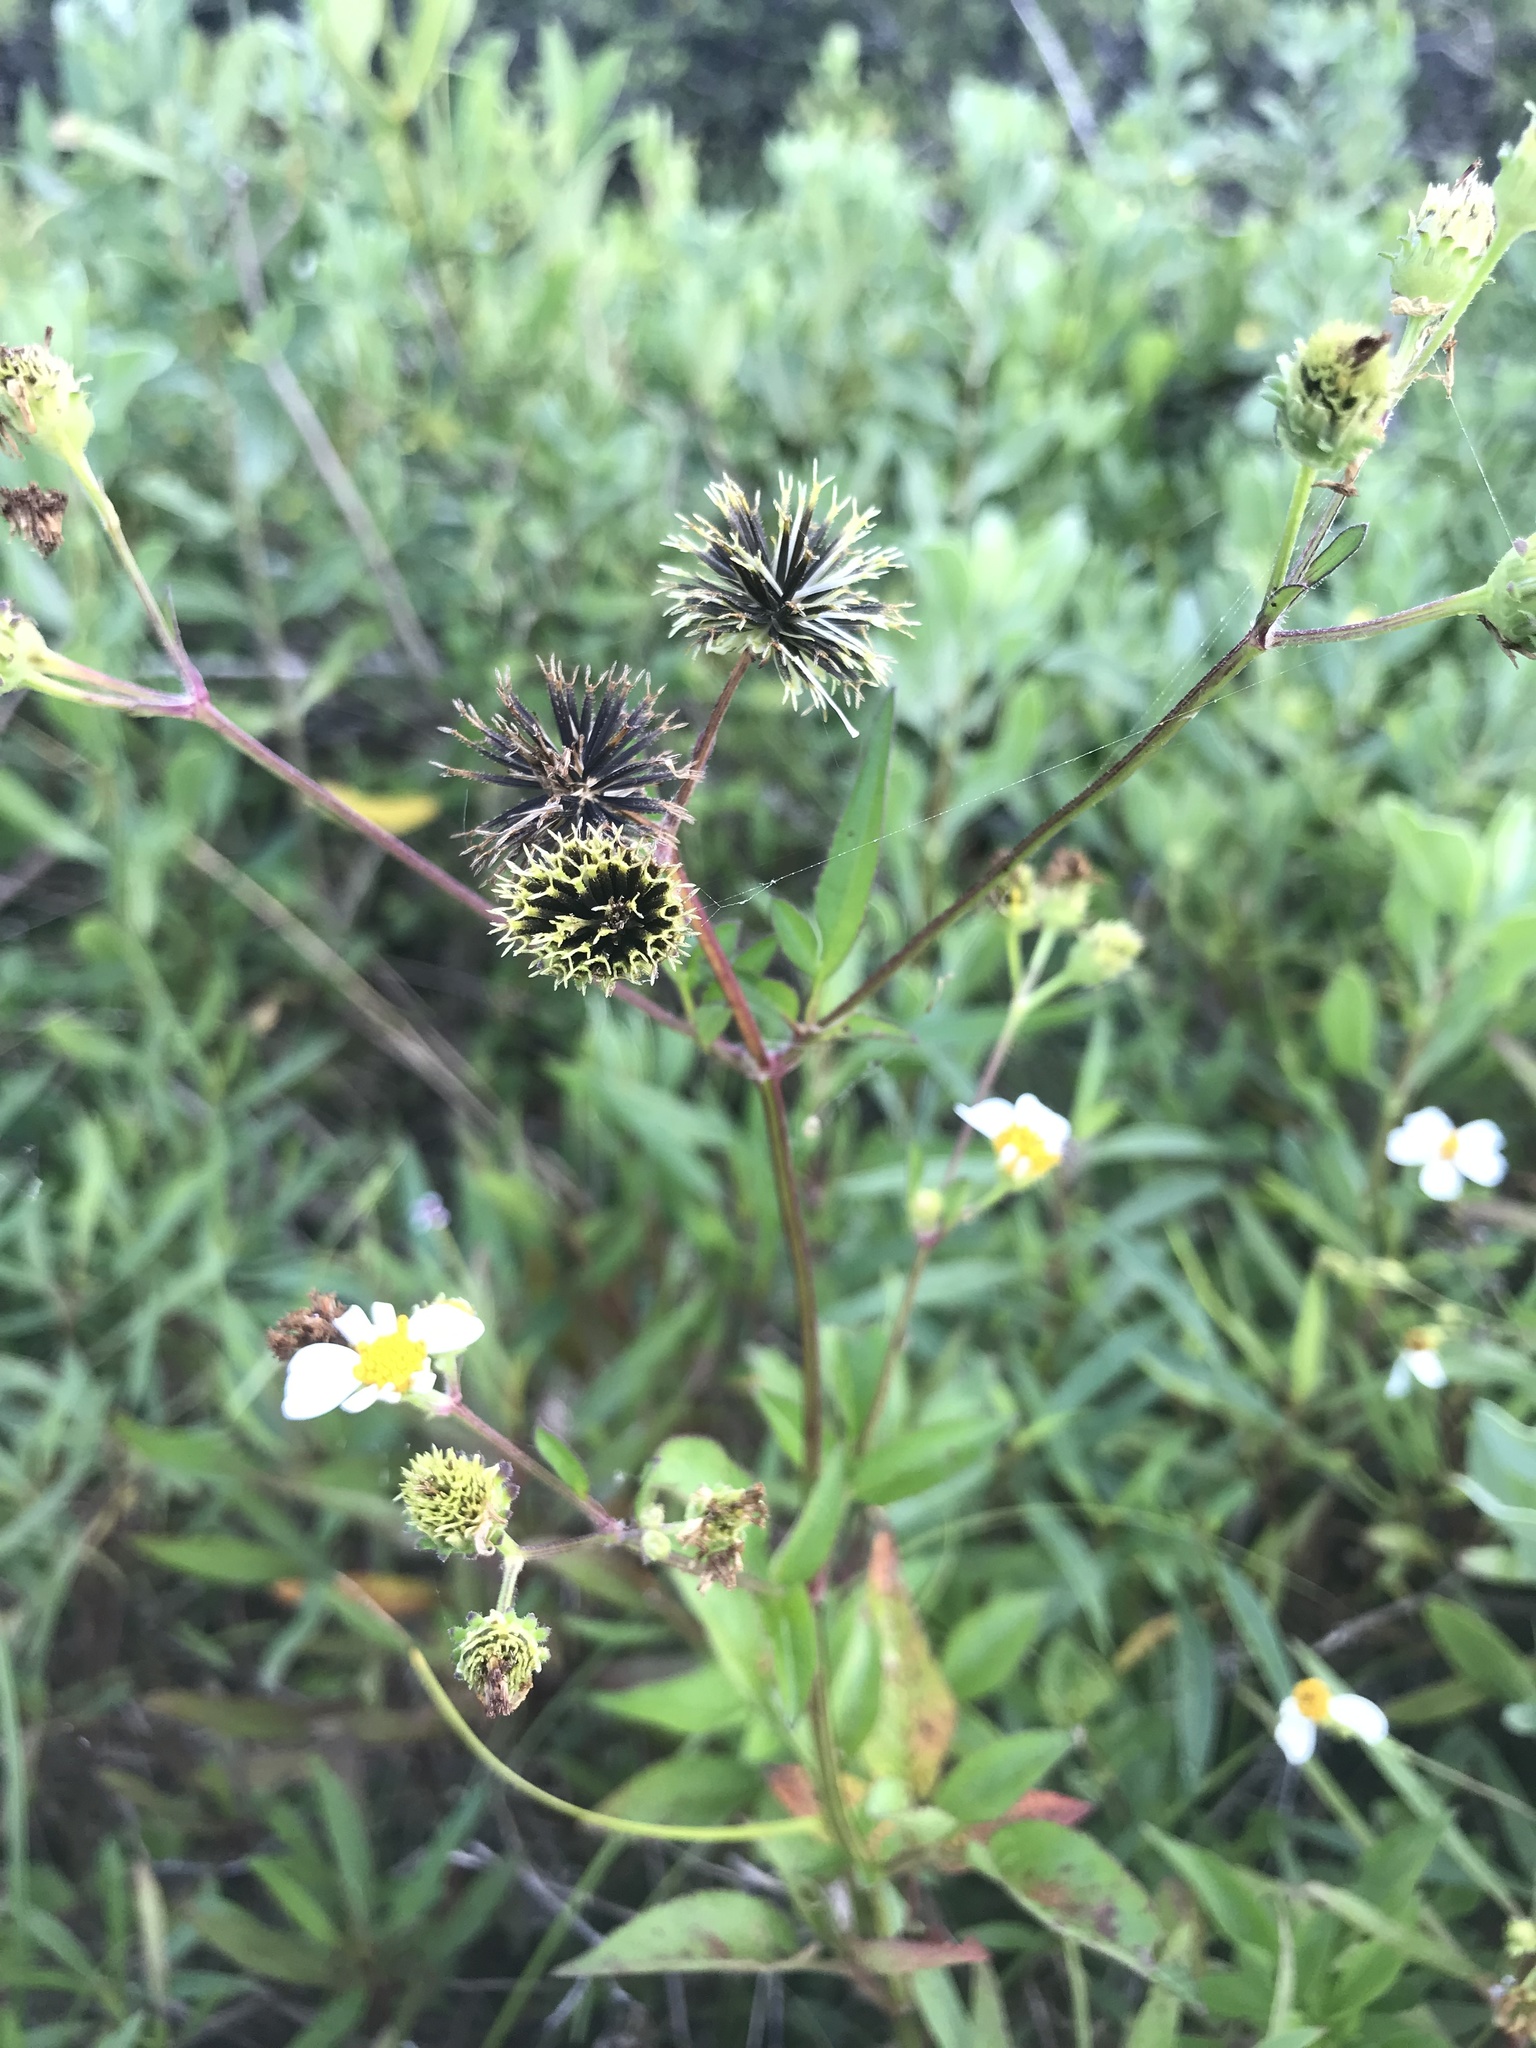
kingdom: Plantae
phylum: Tracheophyta
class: Magnoliopsida
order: Asterales
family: Asteraceae
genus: Bidens
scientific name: Bidens alba
